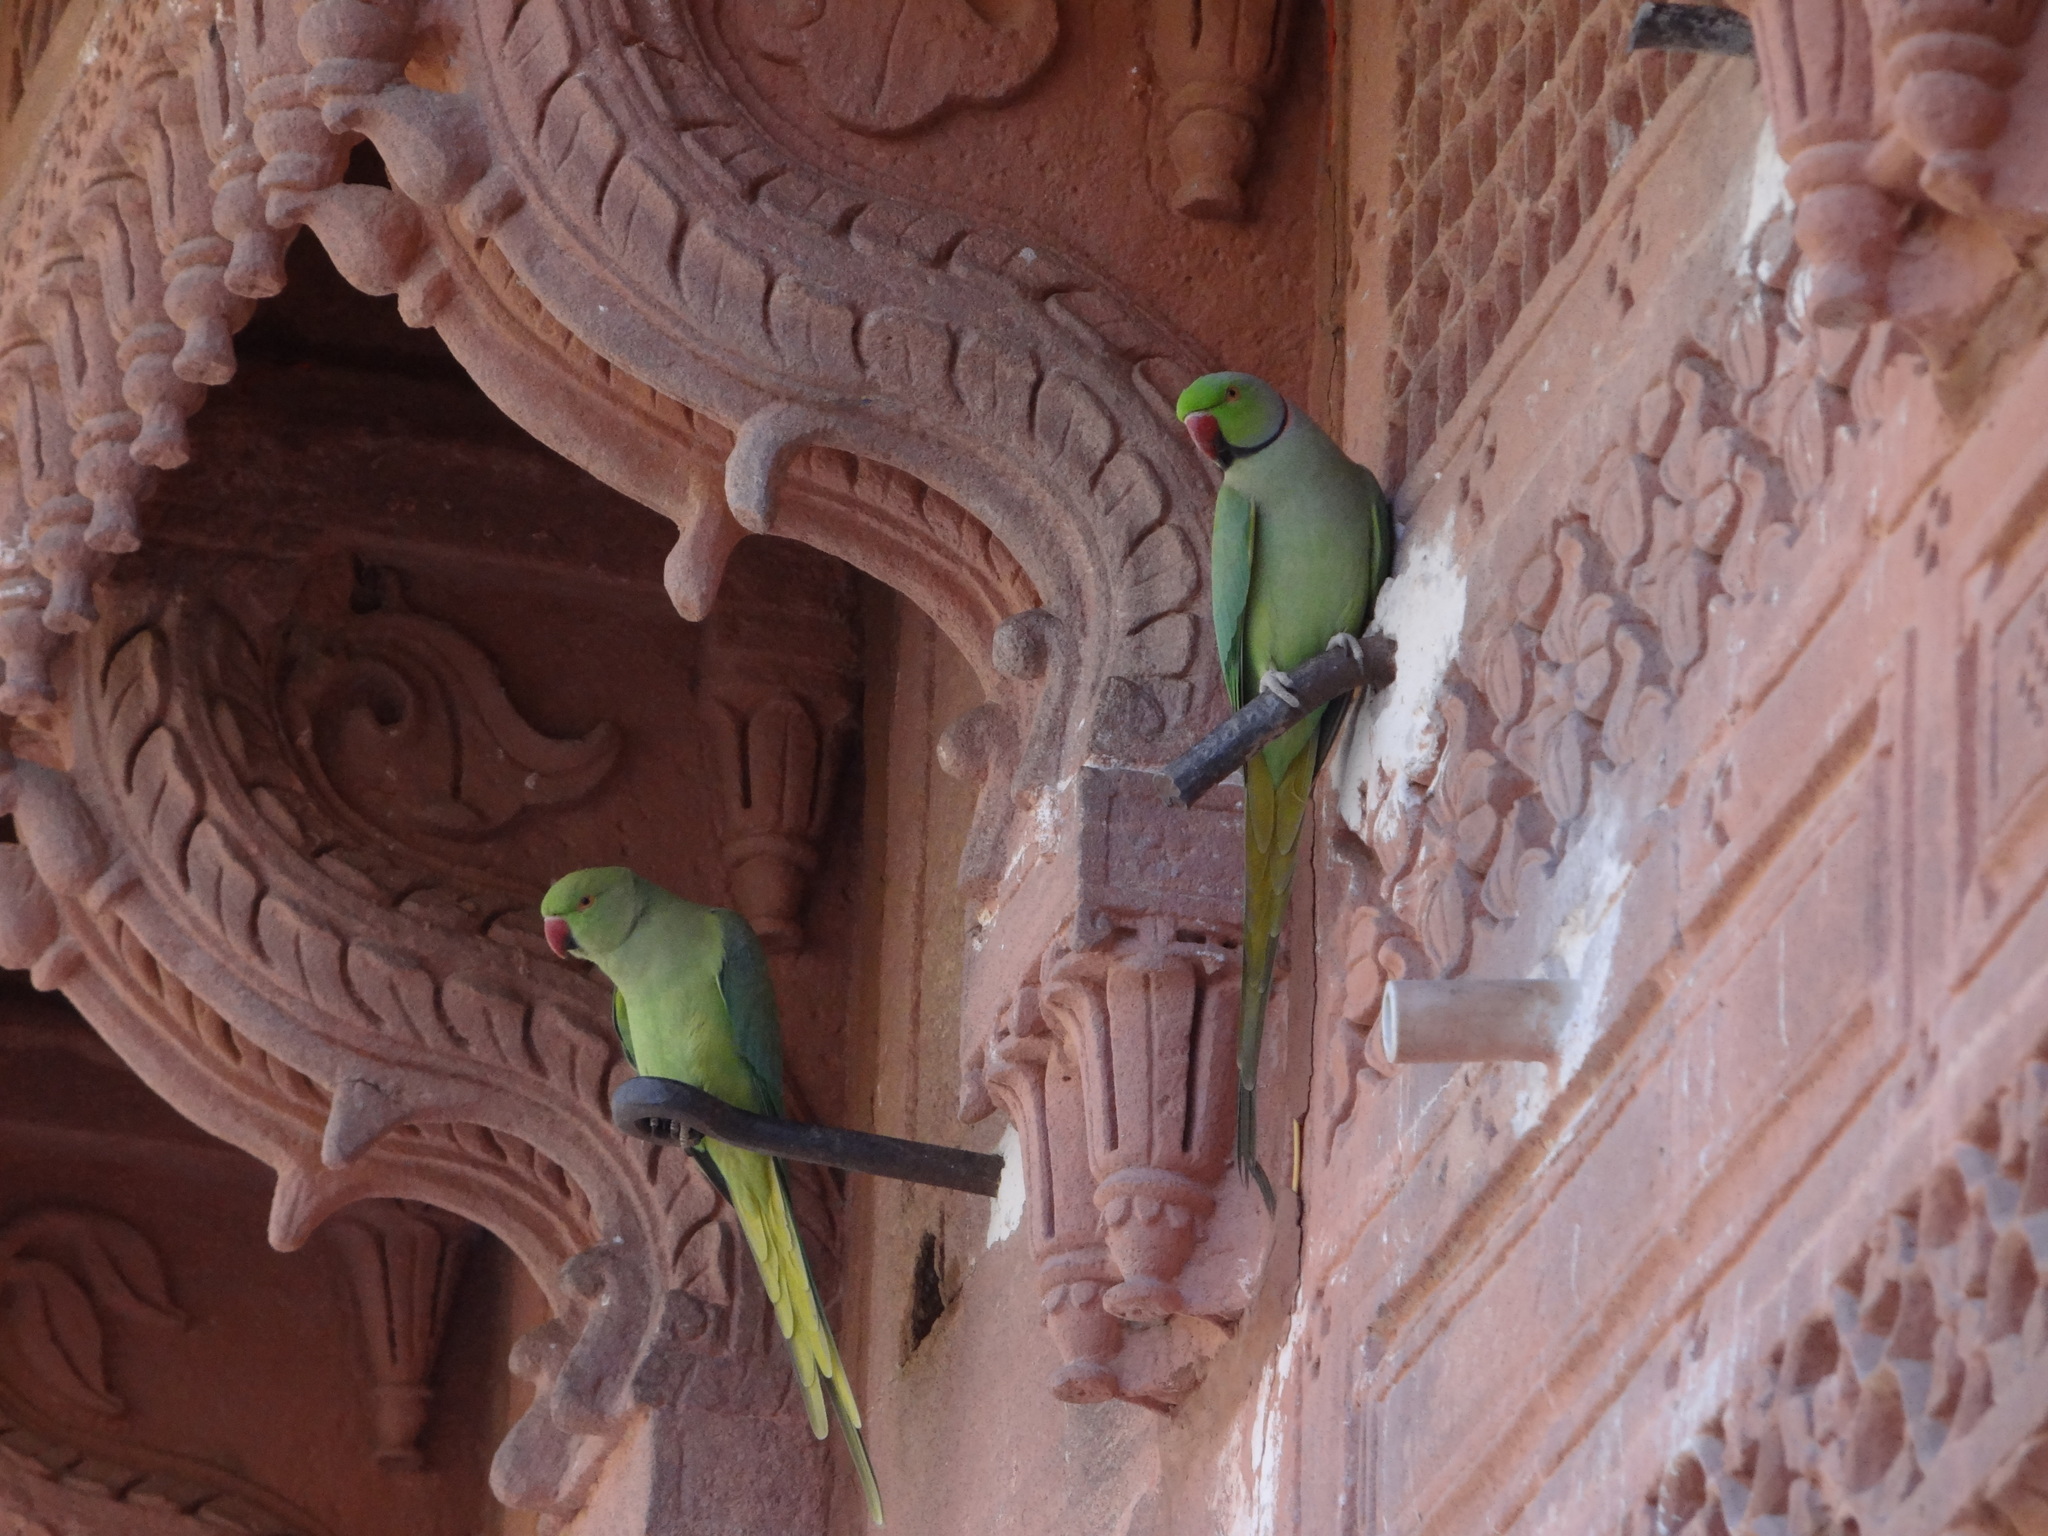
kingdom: Animalia
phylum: Chordata
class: Aves
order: Psittaciformes
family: Psittacidae
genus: Psittacula
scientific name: Psittacula krameri
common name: Rose-ringed parakeet
